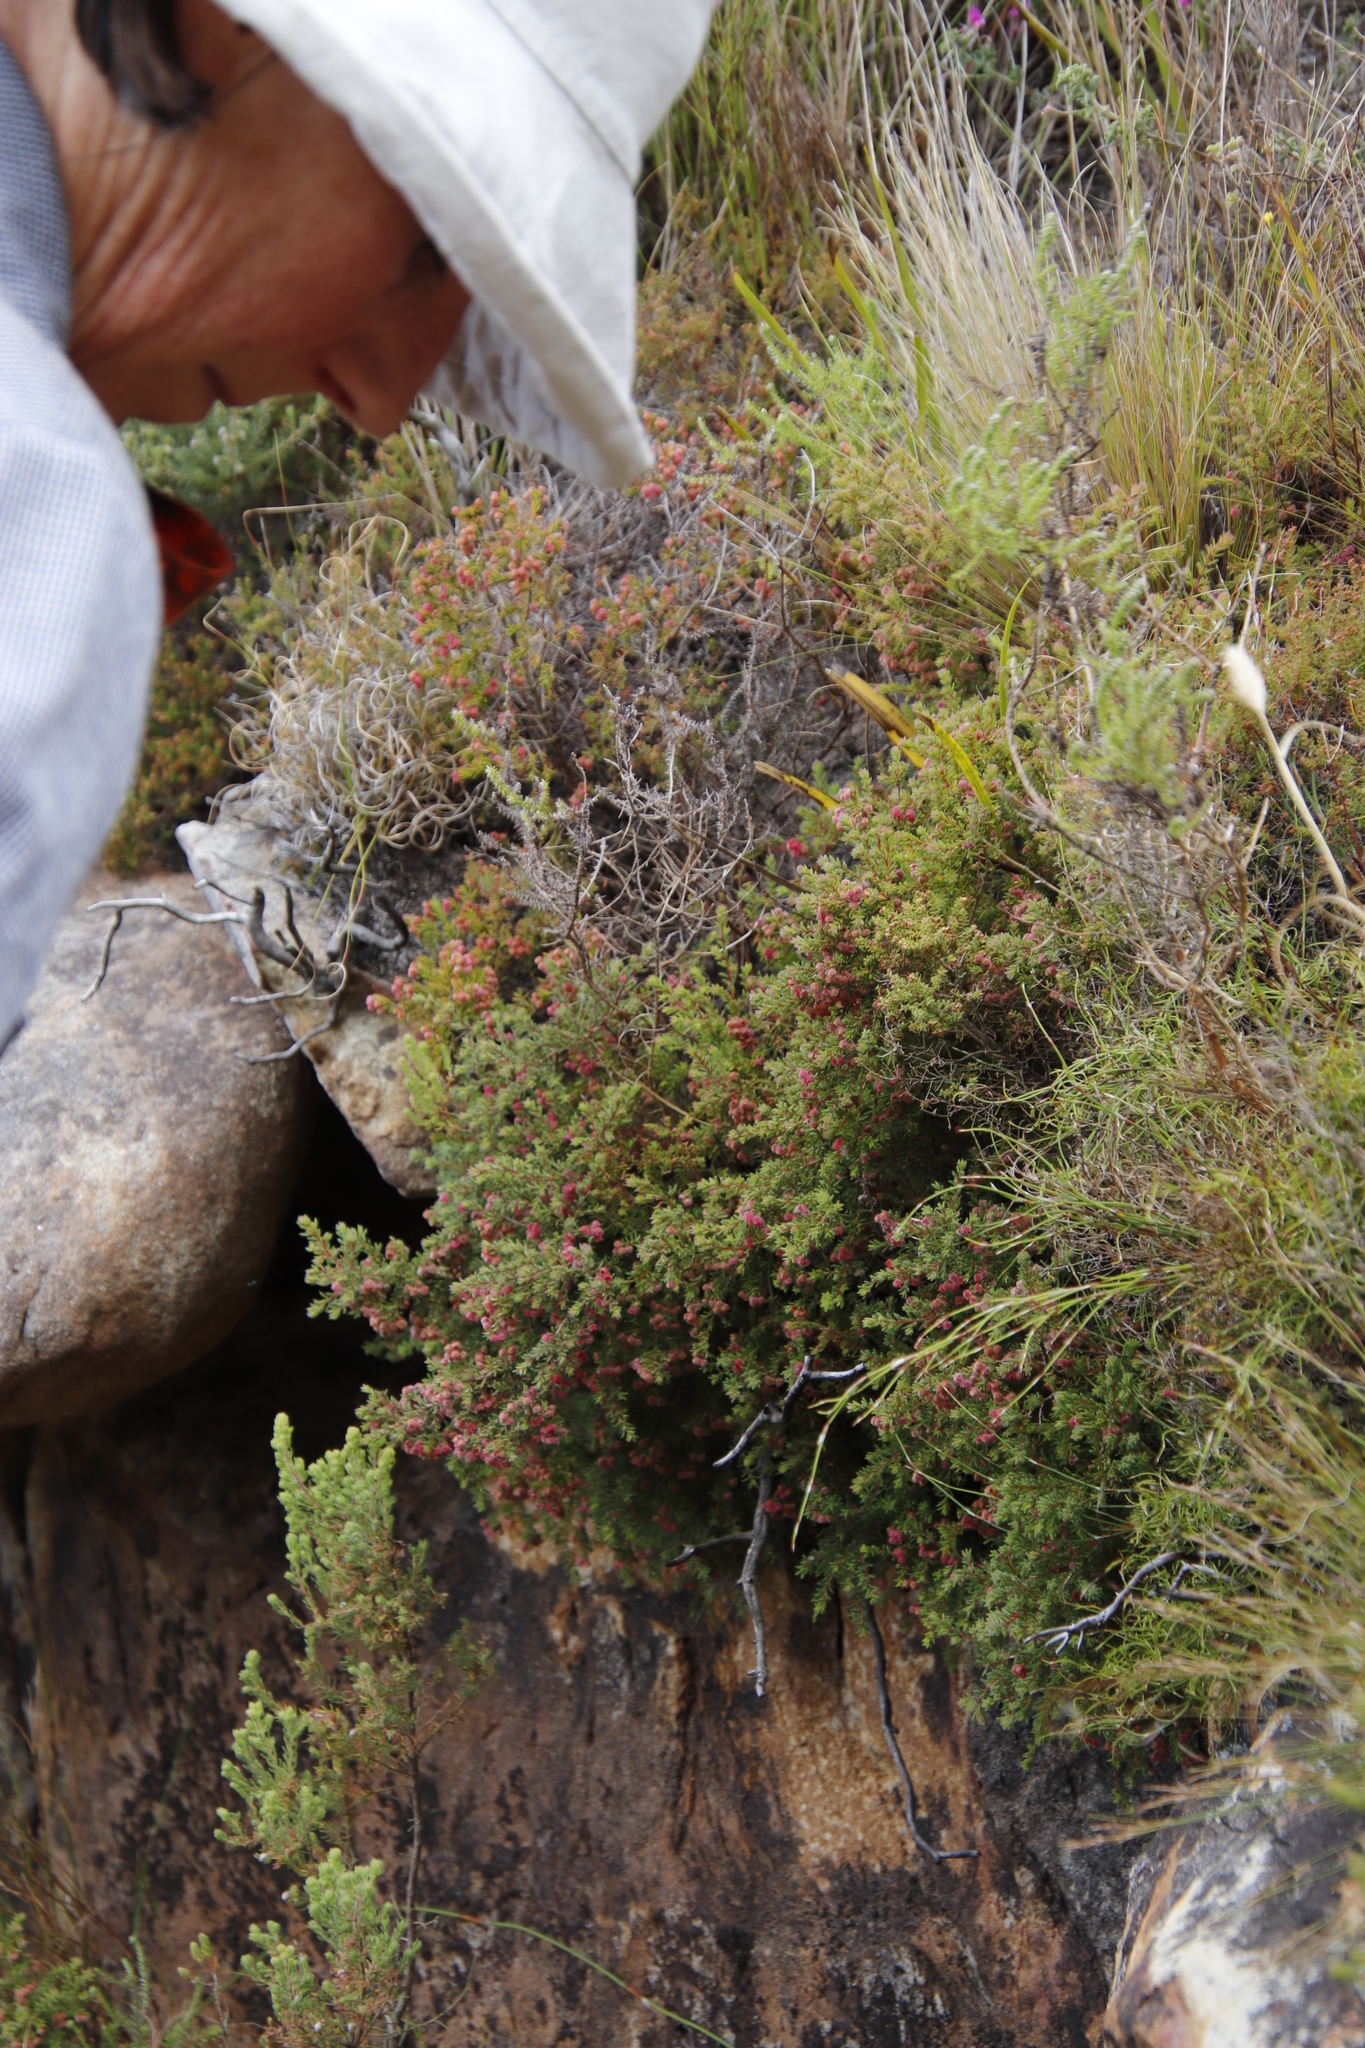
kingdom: Plantae
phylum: Tracheophyta
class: Magnoliopsida
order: Ericales
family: Ericaceae
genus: Erica
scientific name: Erica haematocodon
